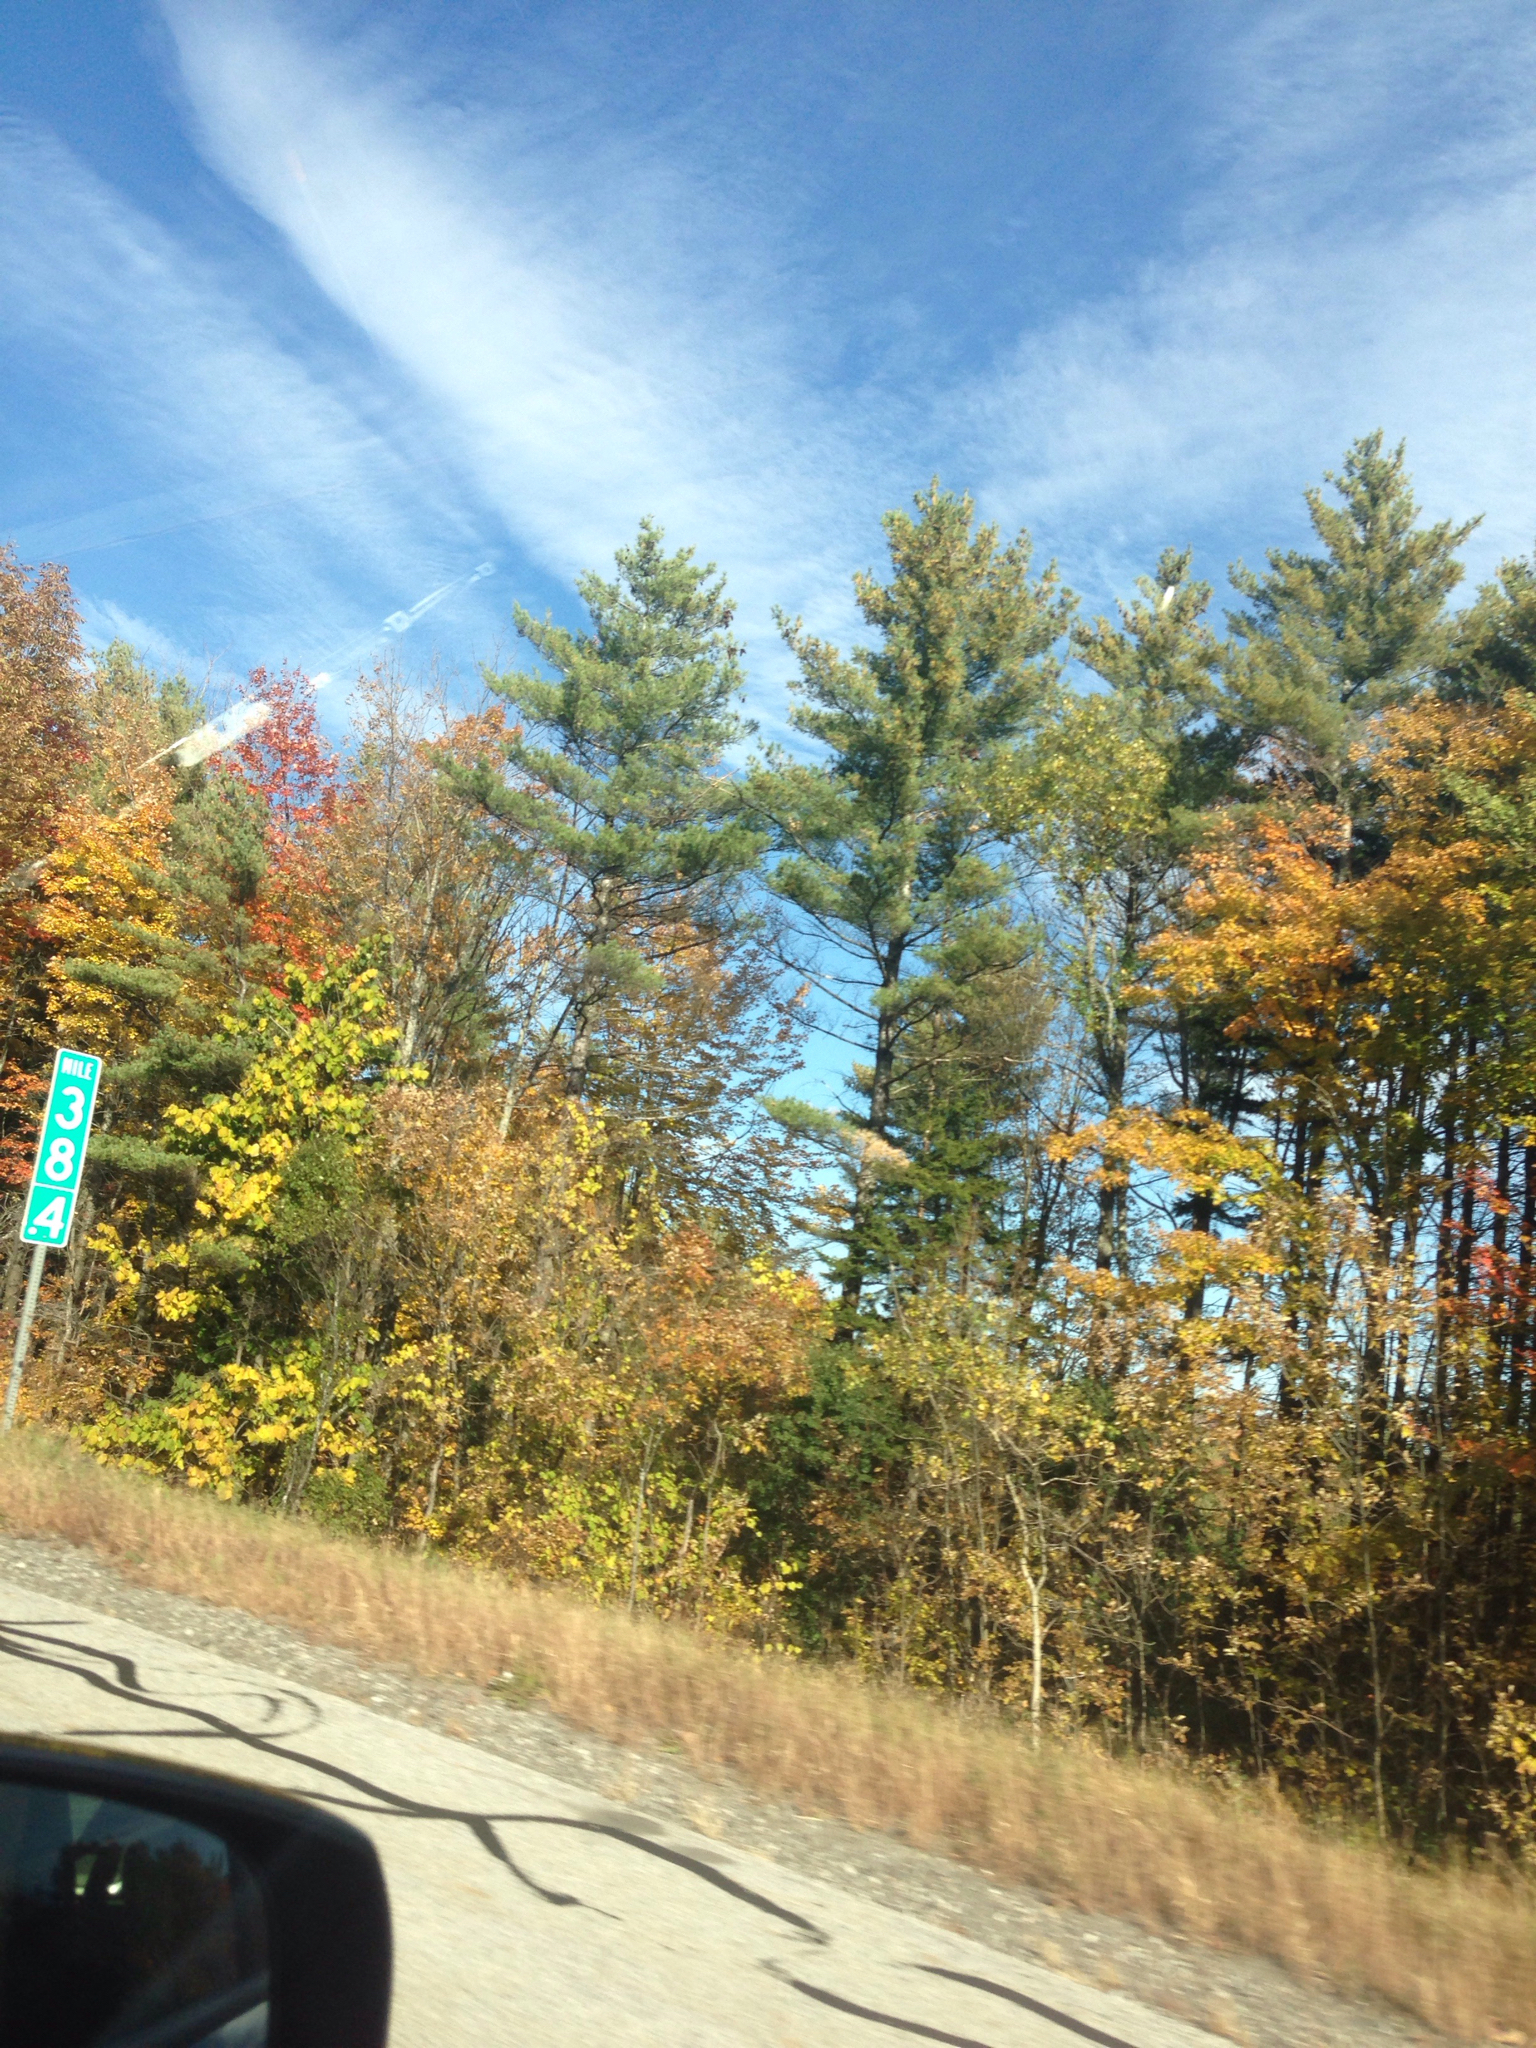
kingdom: Plantae
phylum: Tracheophyta
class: Pinopsida
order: Pinales
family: Pinaceae
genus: Pinus
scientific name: Pinus strobus
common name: Weymouth pine
